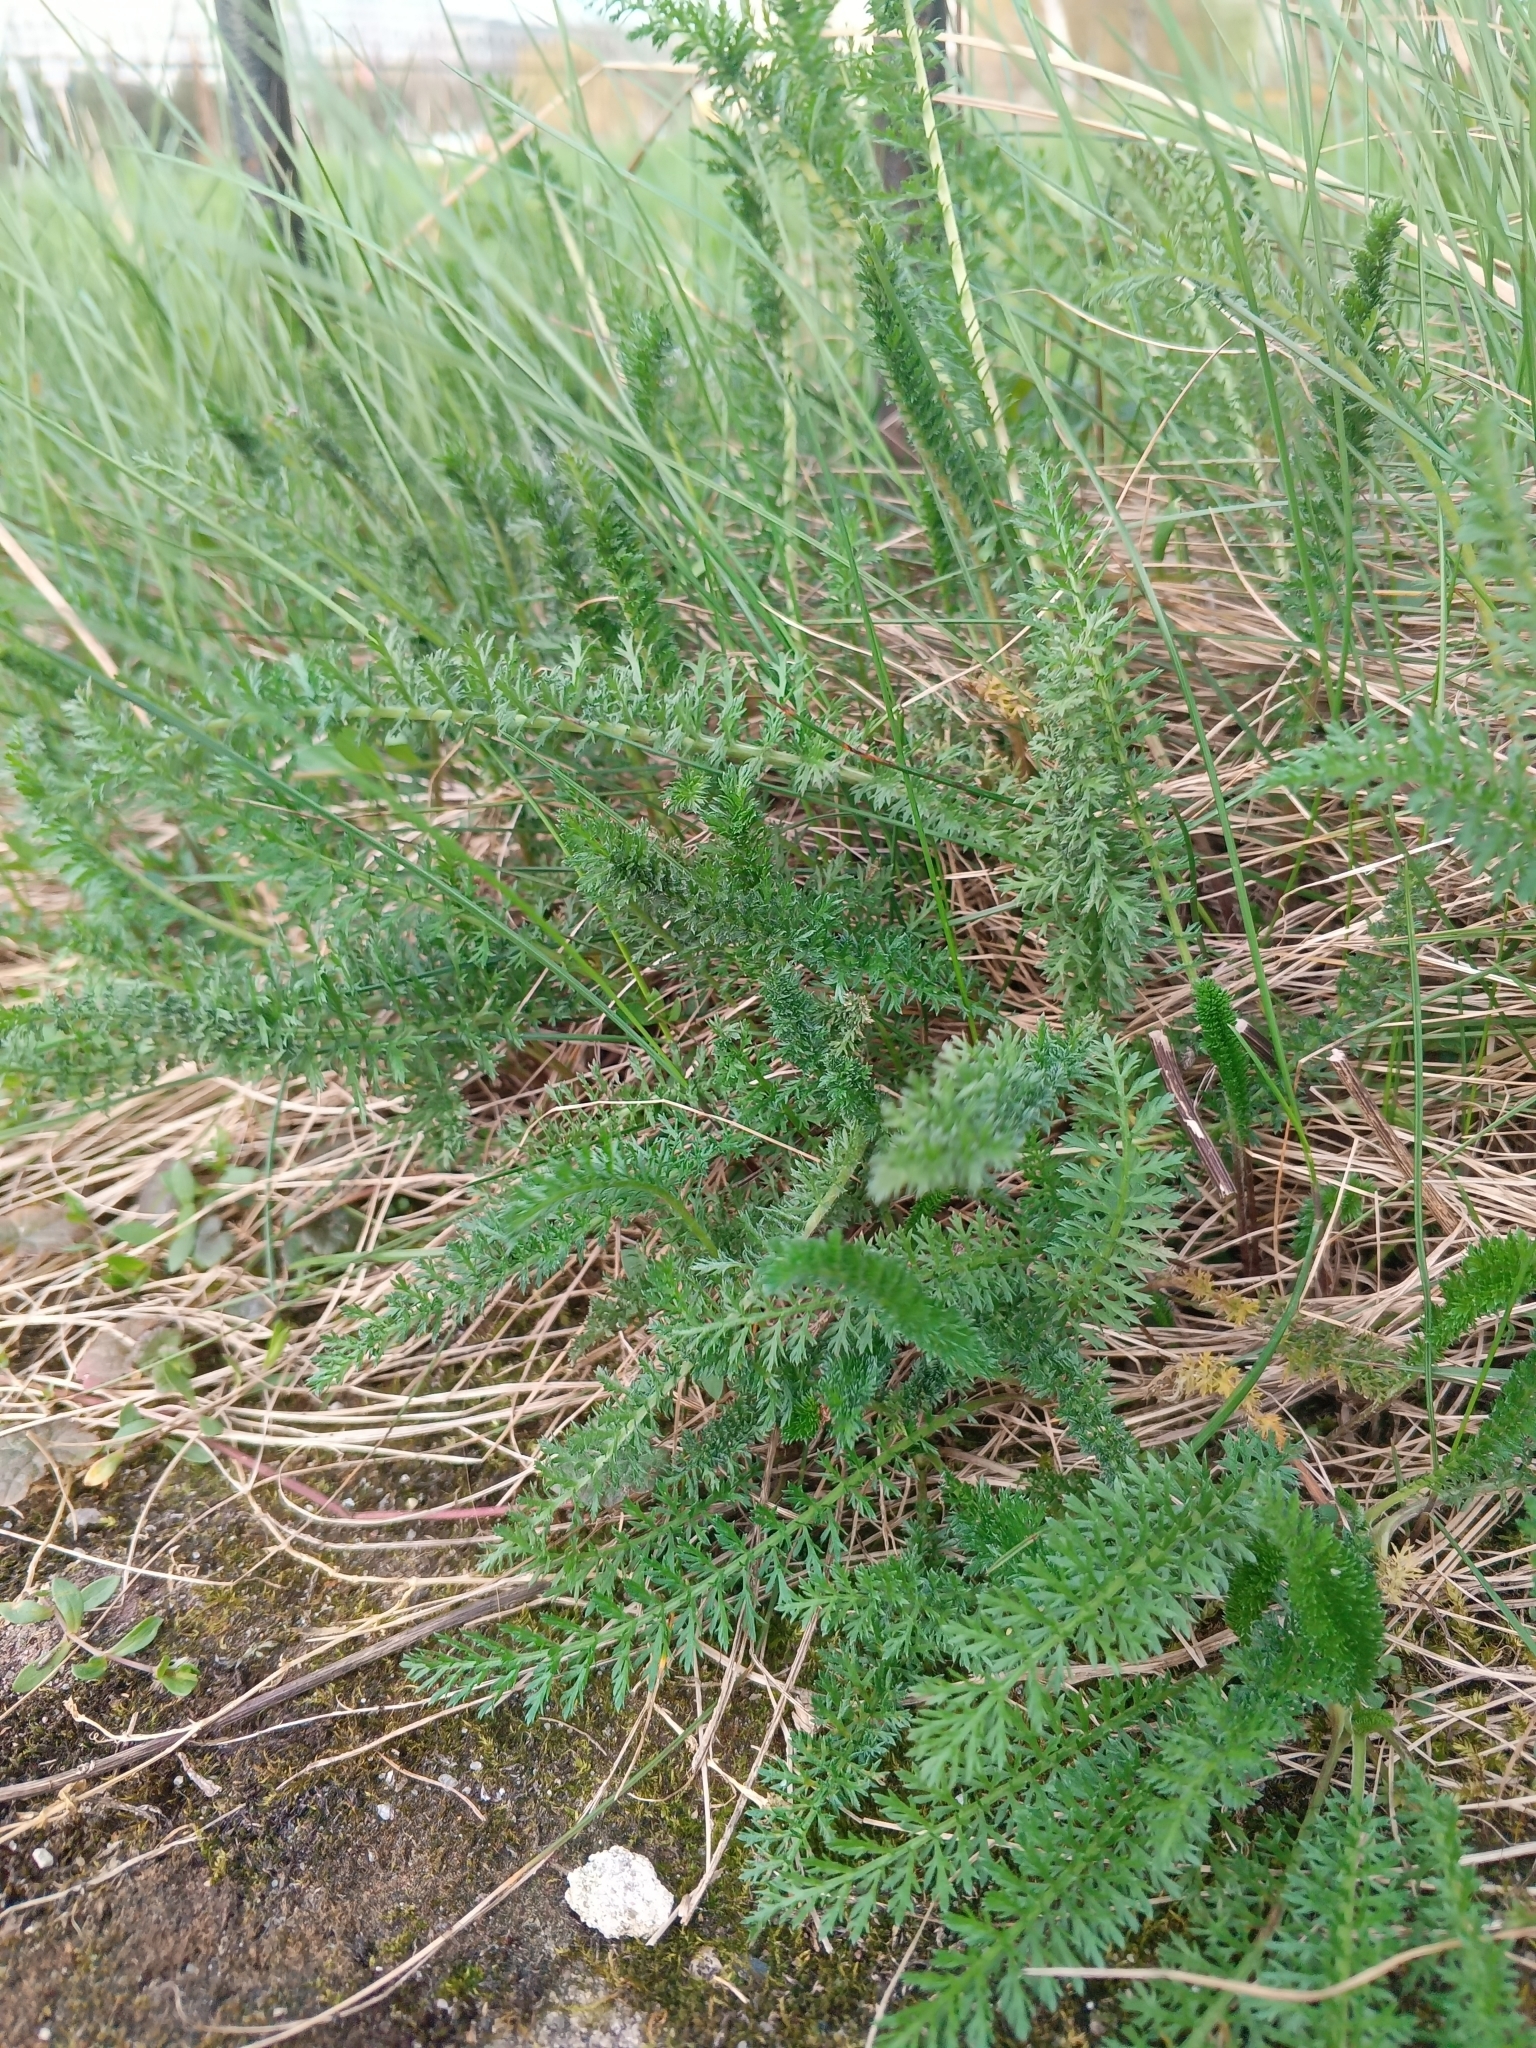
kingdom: Plantae
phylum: Tracheophyta
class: Magnoliopsida
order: Asterales
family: Asteraceae
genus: Achillea
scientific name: Achillea millefolium
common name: Yarrow
